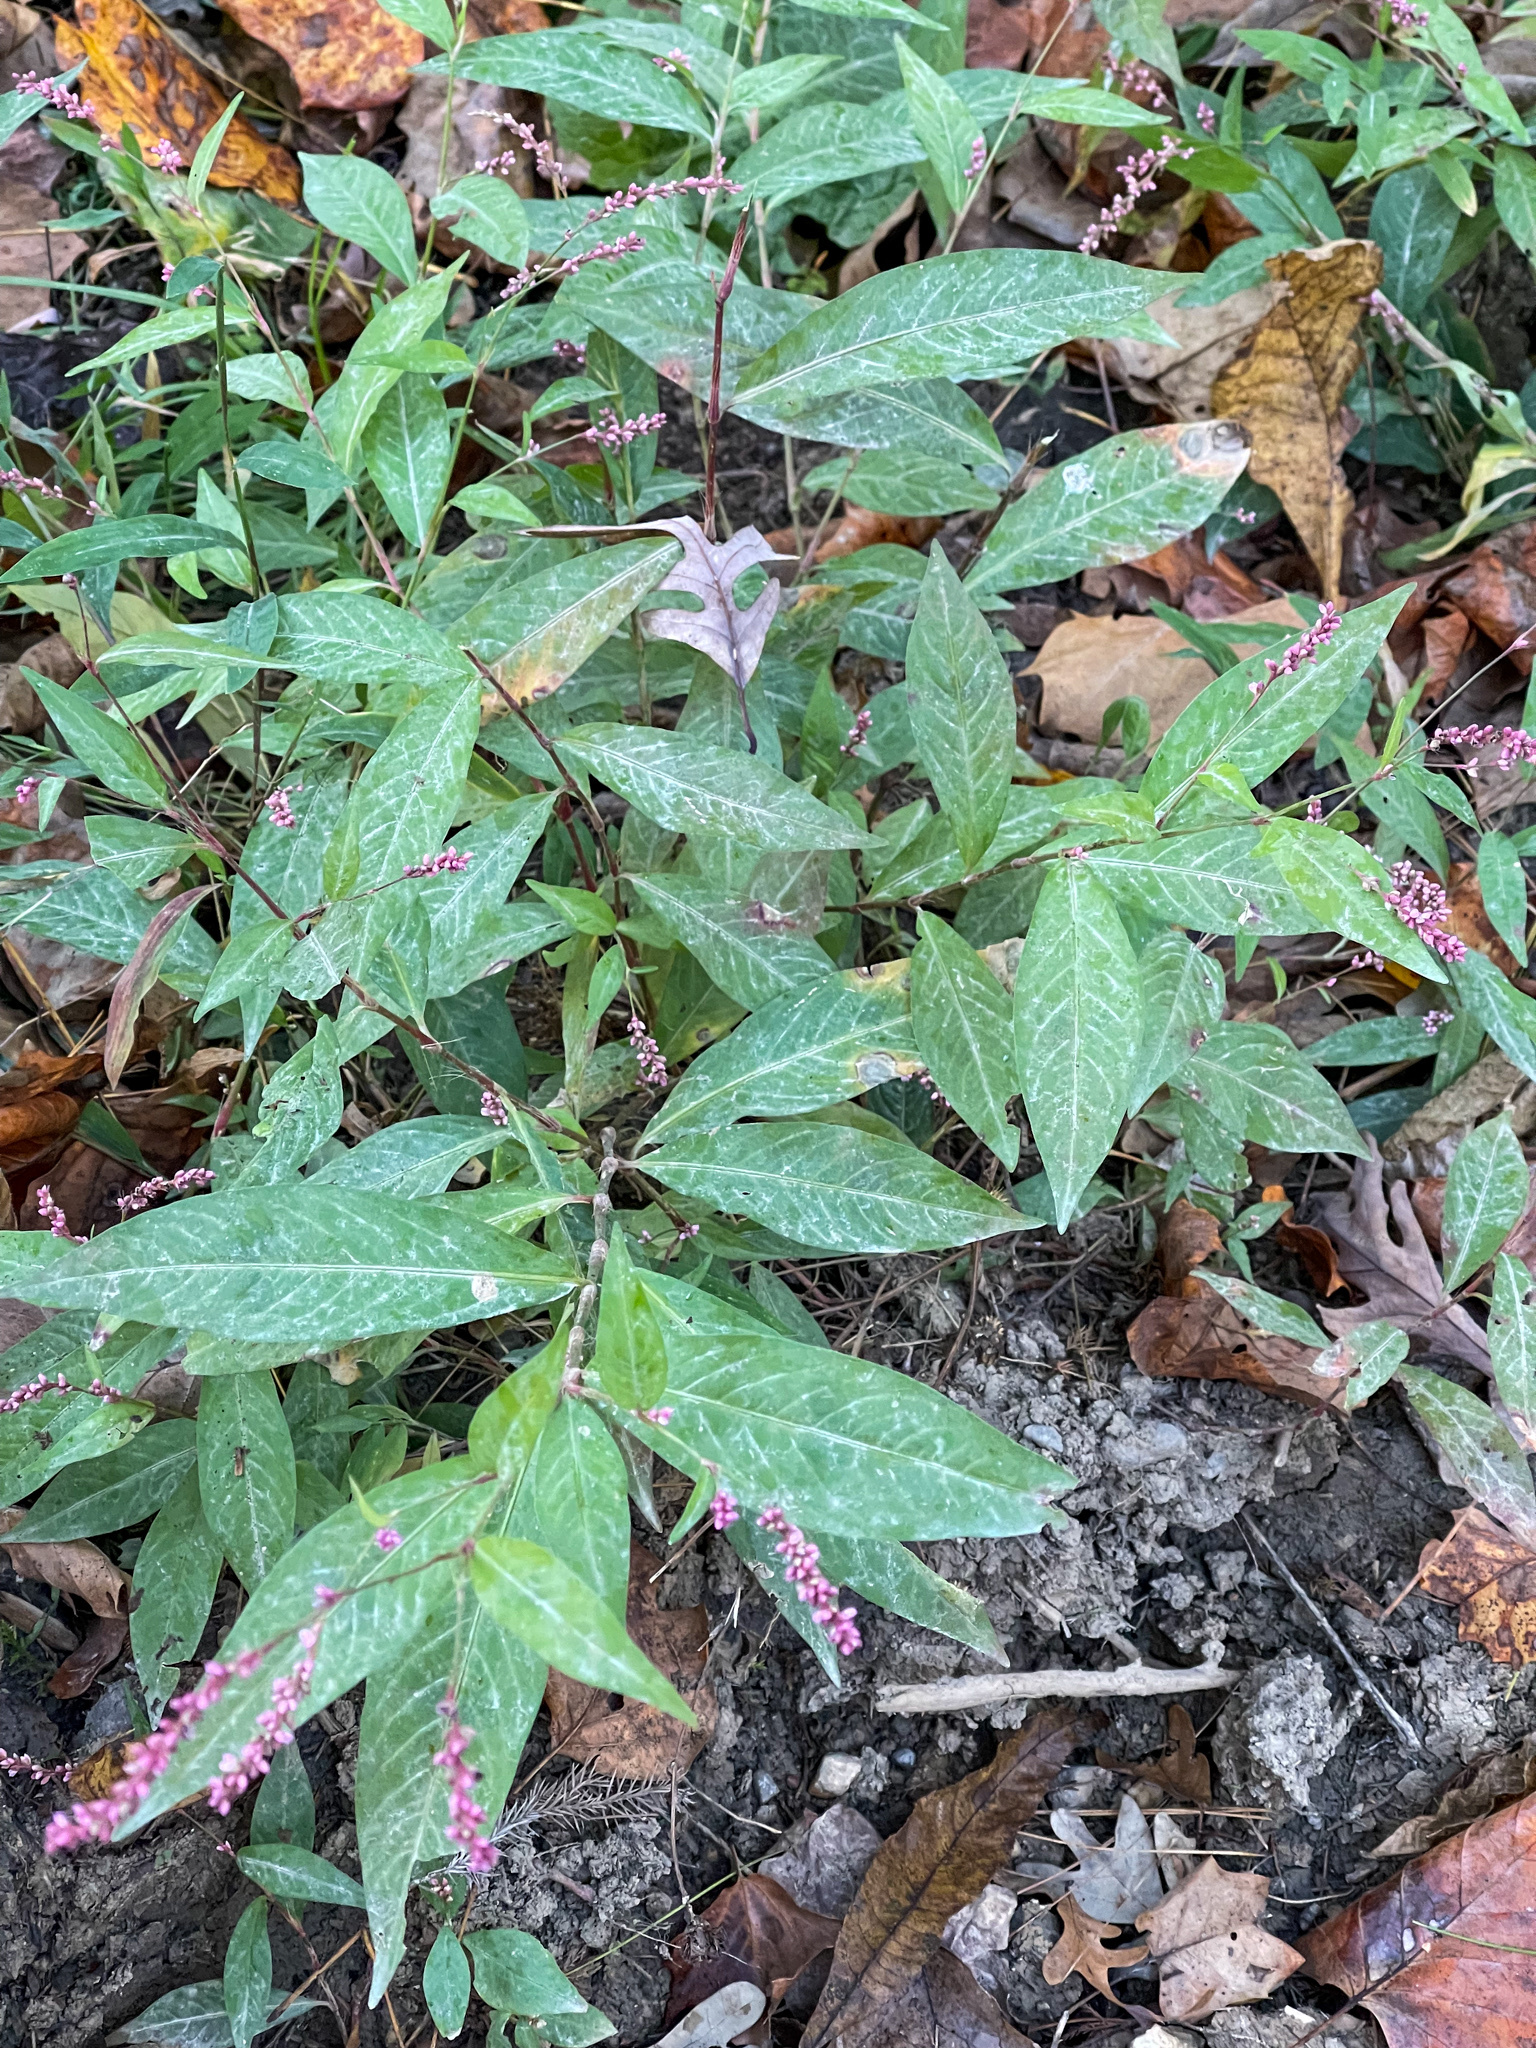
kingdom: Plantae
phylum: Tracheophyta
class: Magnoliopsida
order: Caryophyllales
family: Polygonaceae
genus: Persicaria
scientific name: Persicaria longiseta
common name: Bristly lady's-thumb
